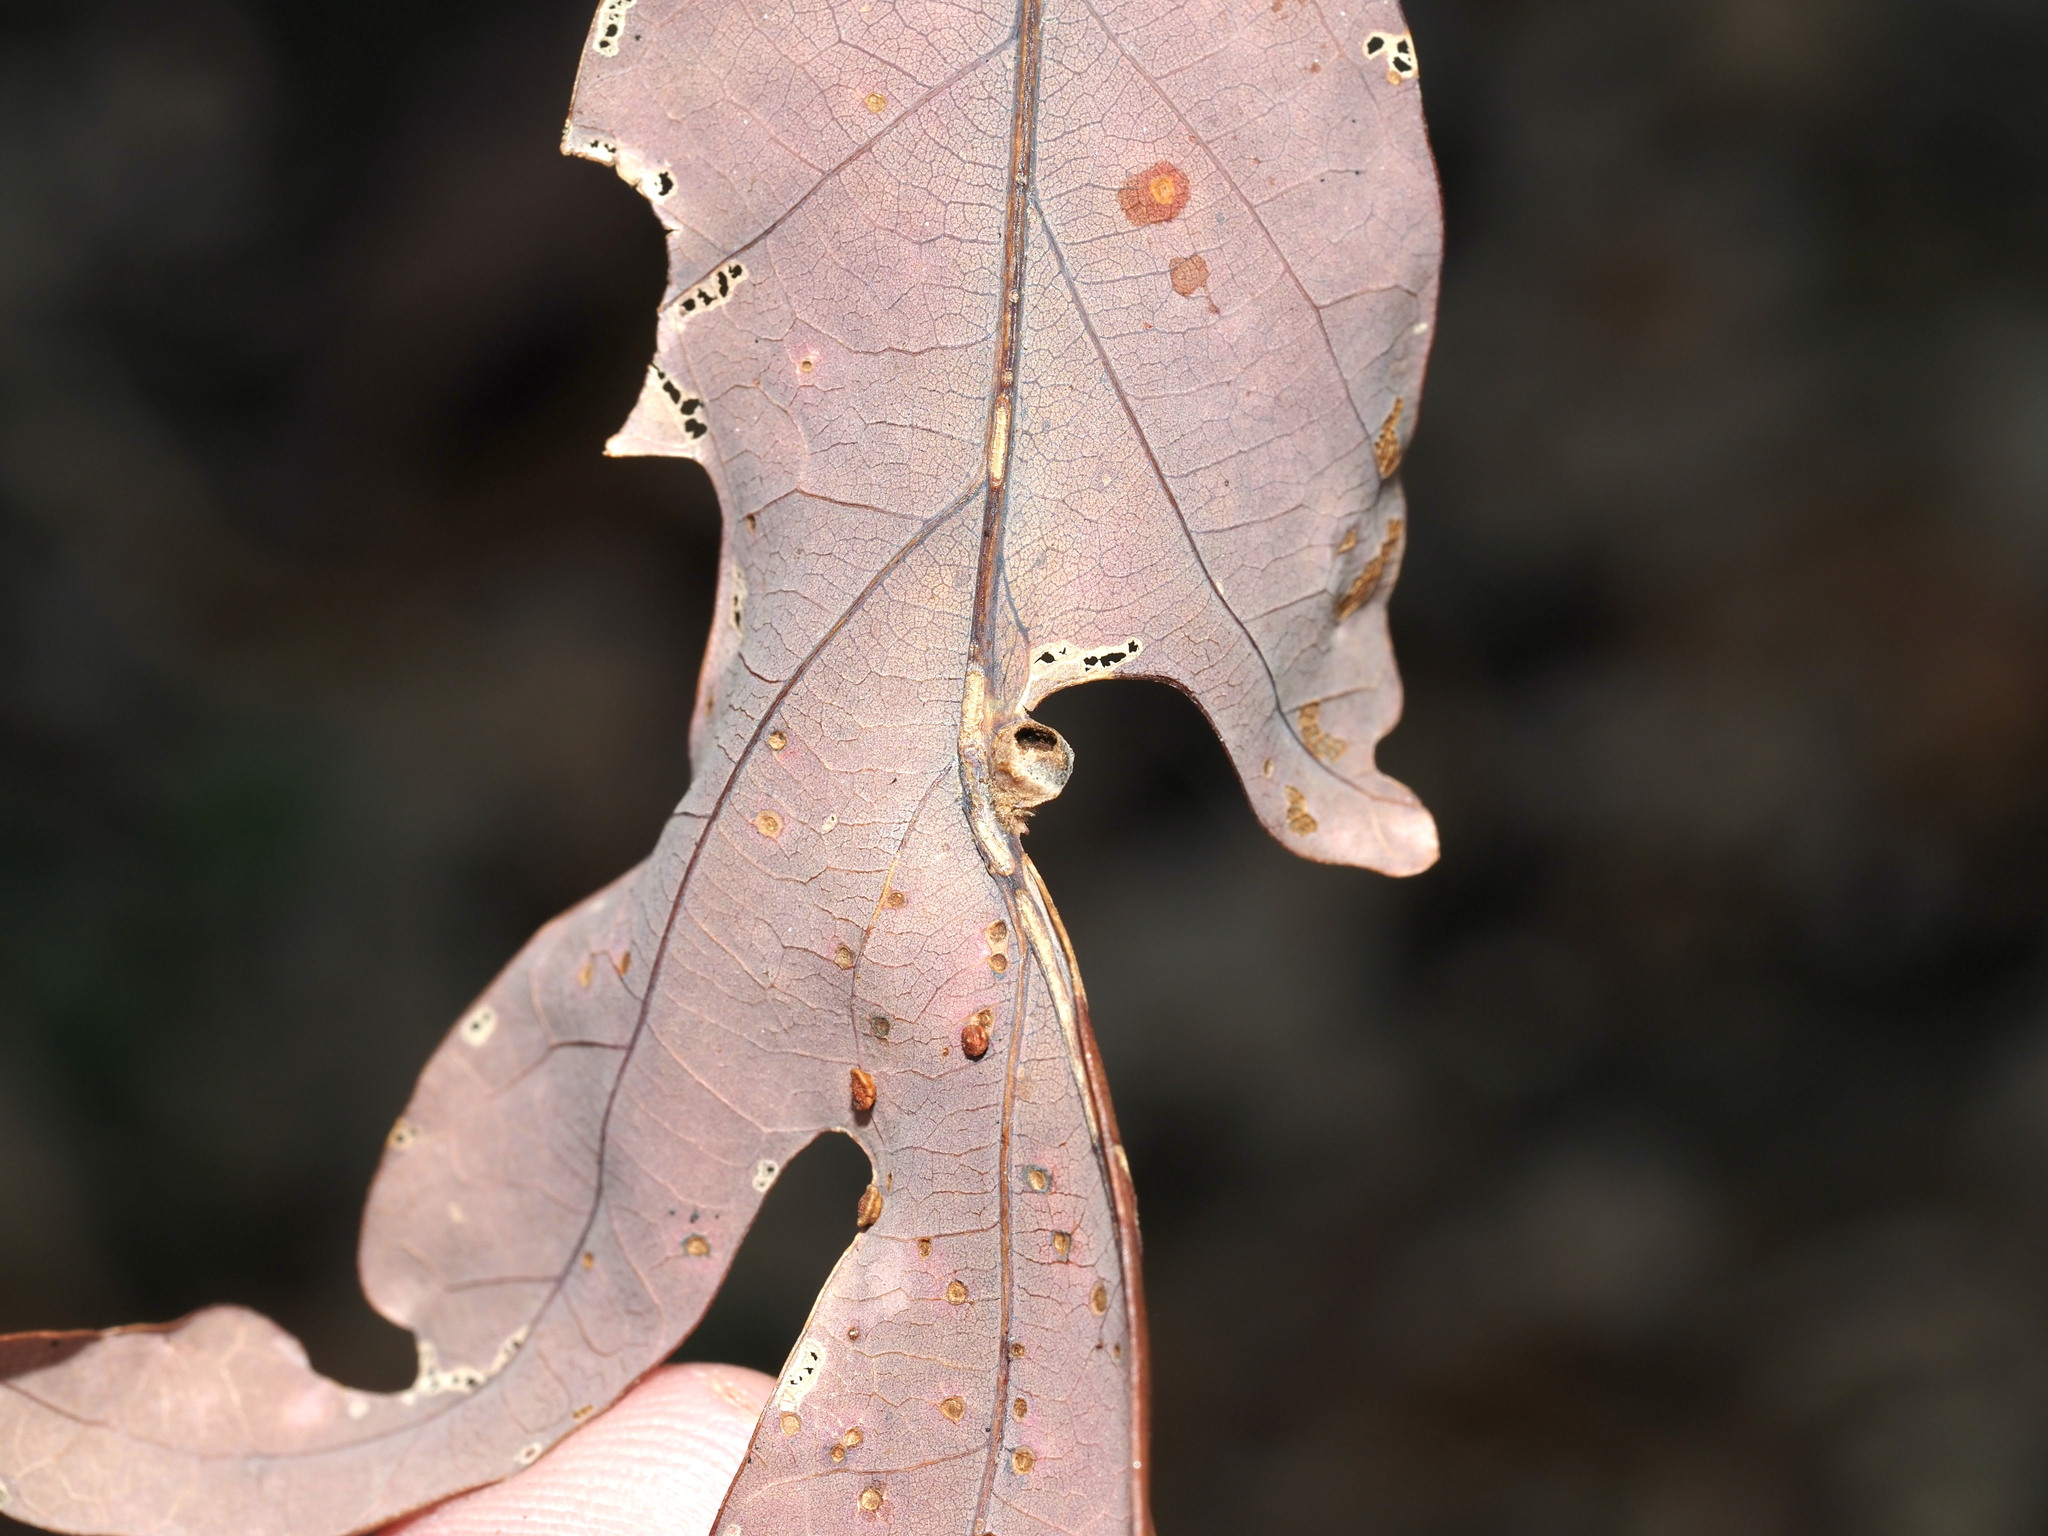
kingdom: Animalia
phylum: Arthropoda
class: Insecta
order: Hymenoptera
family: Cynipidae
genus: Andricus
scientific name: Andricus
